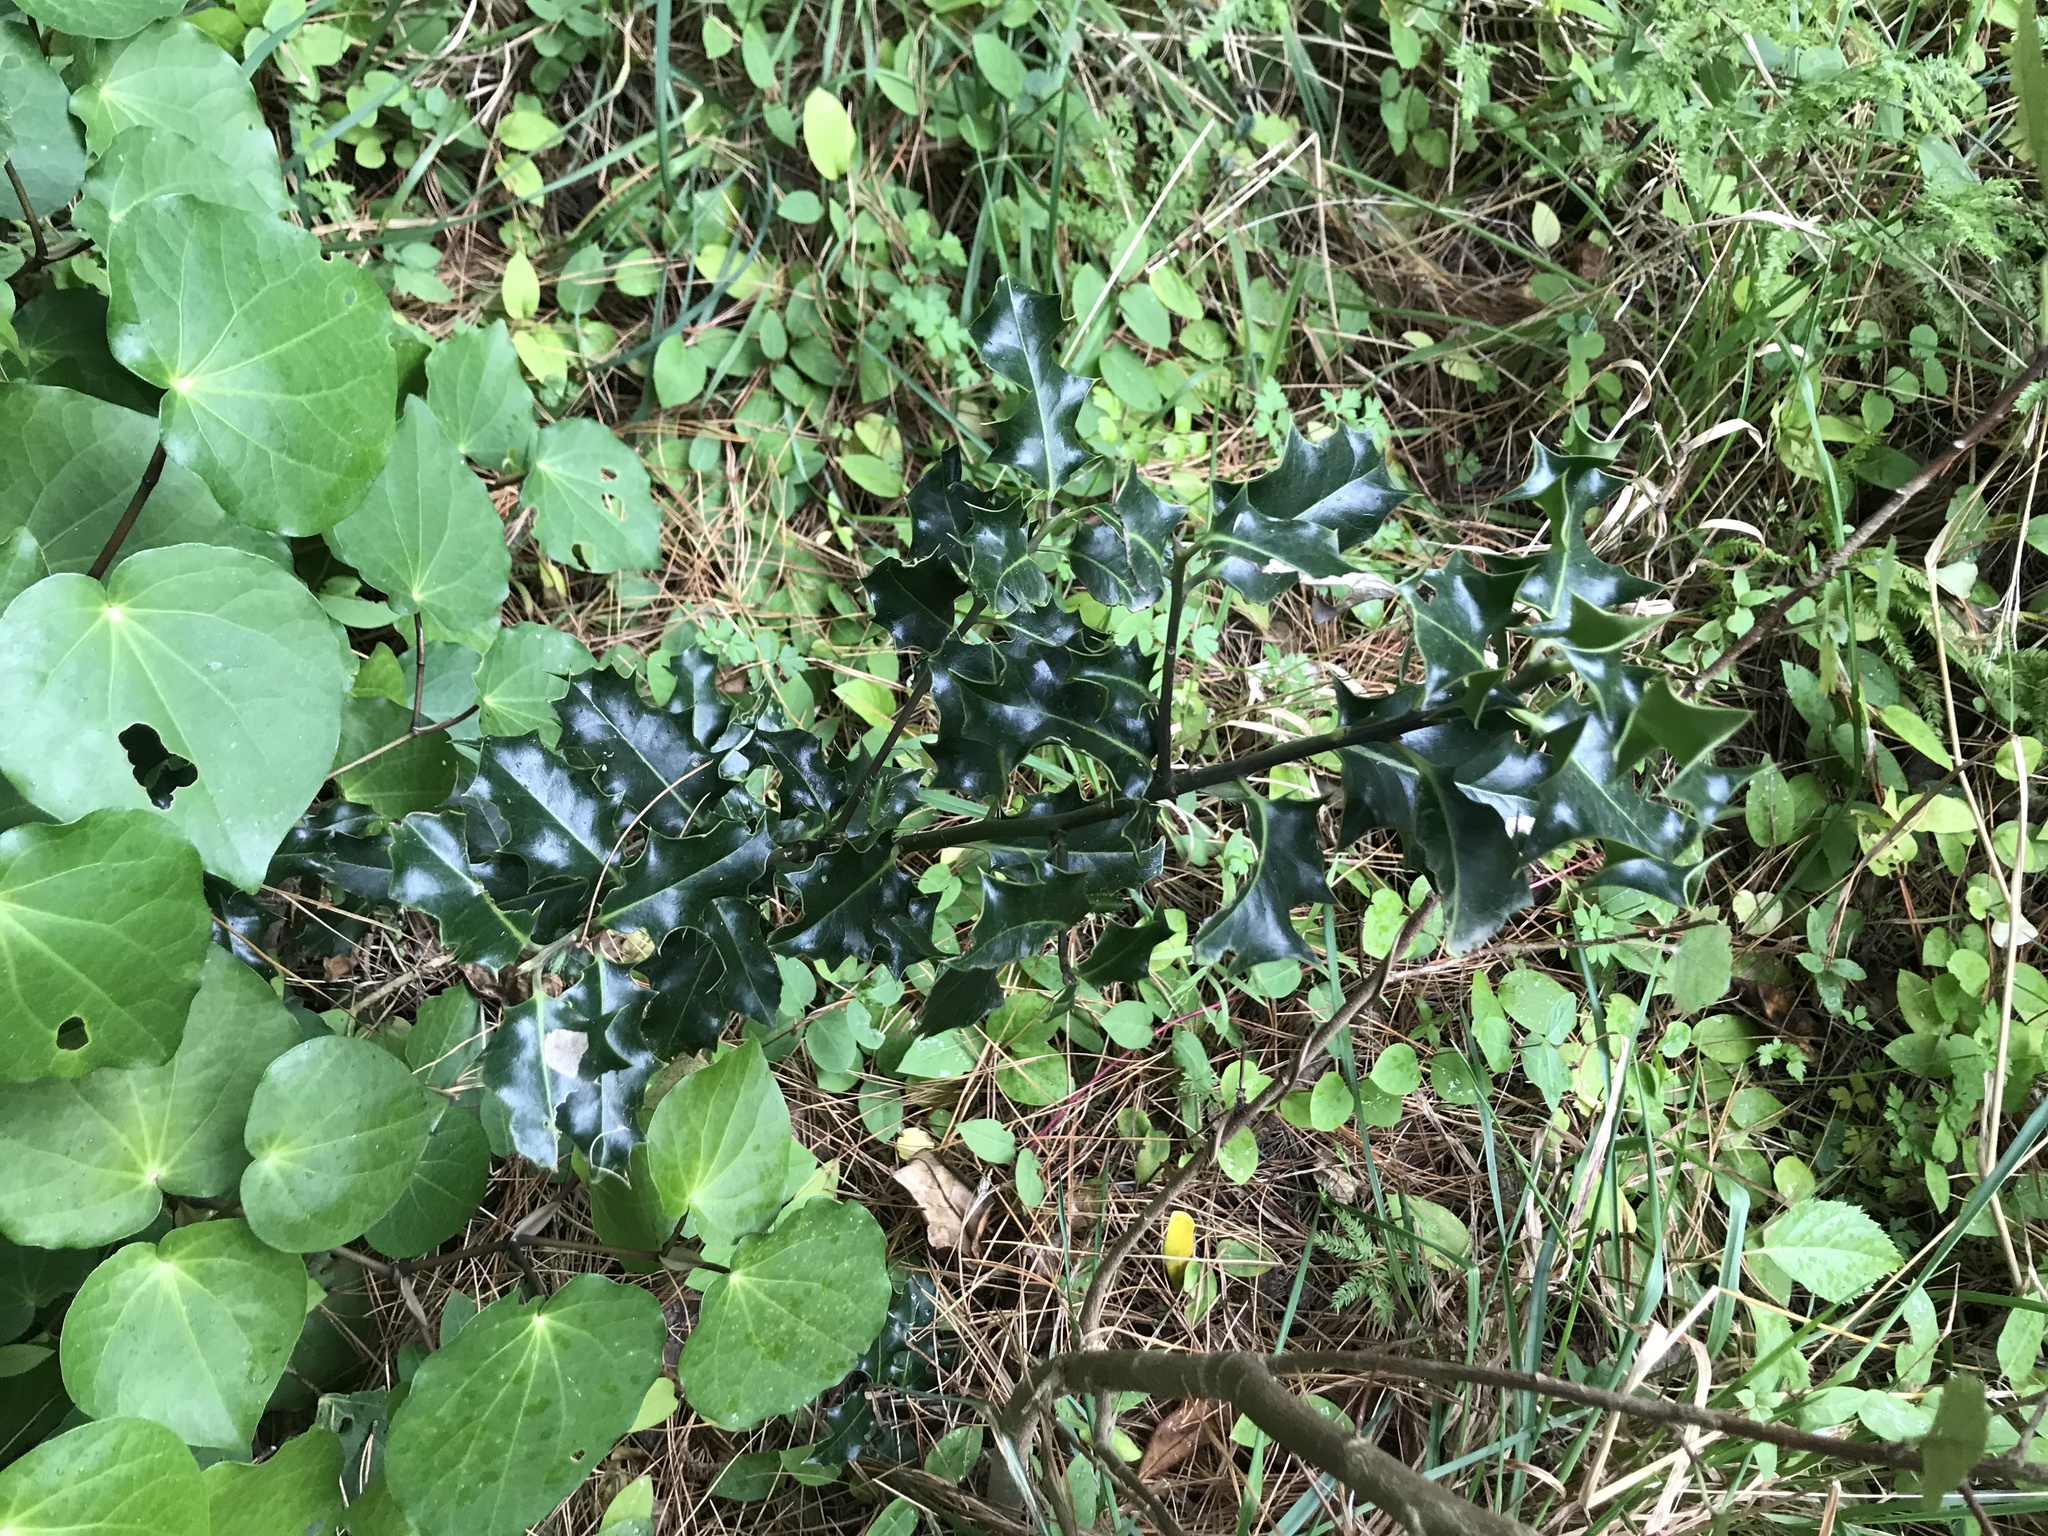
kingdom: Plantae
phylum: Tracheophyta
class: Magnoliopsida
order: Aquifoliales
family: Aquifoliaceae
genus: Ilex
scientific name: Ilex aquifolium
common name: English holly
